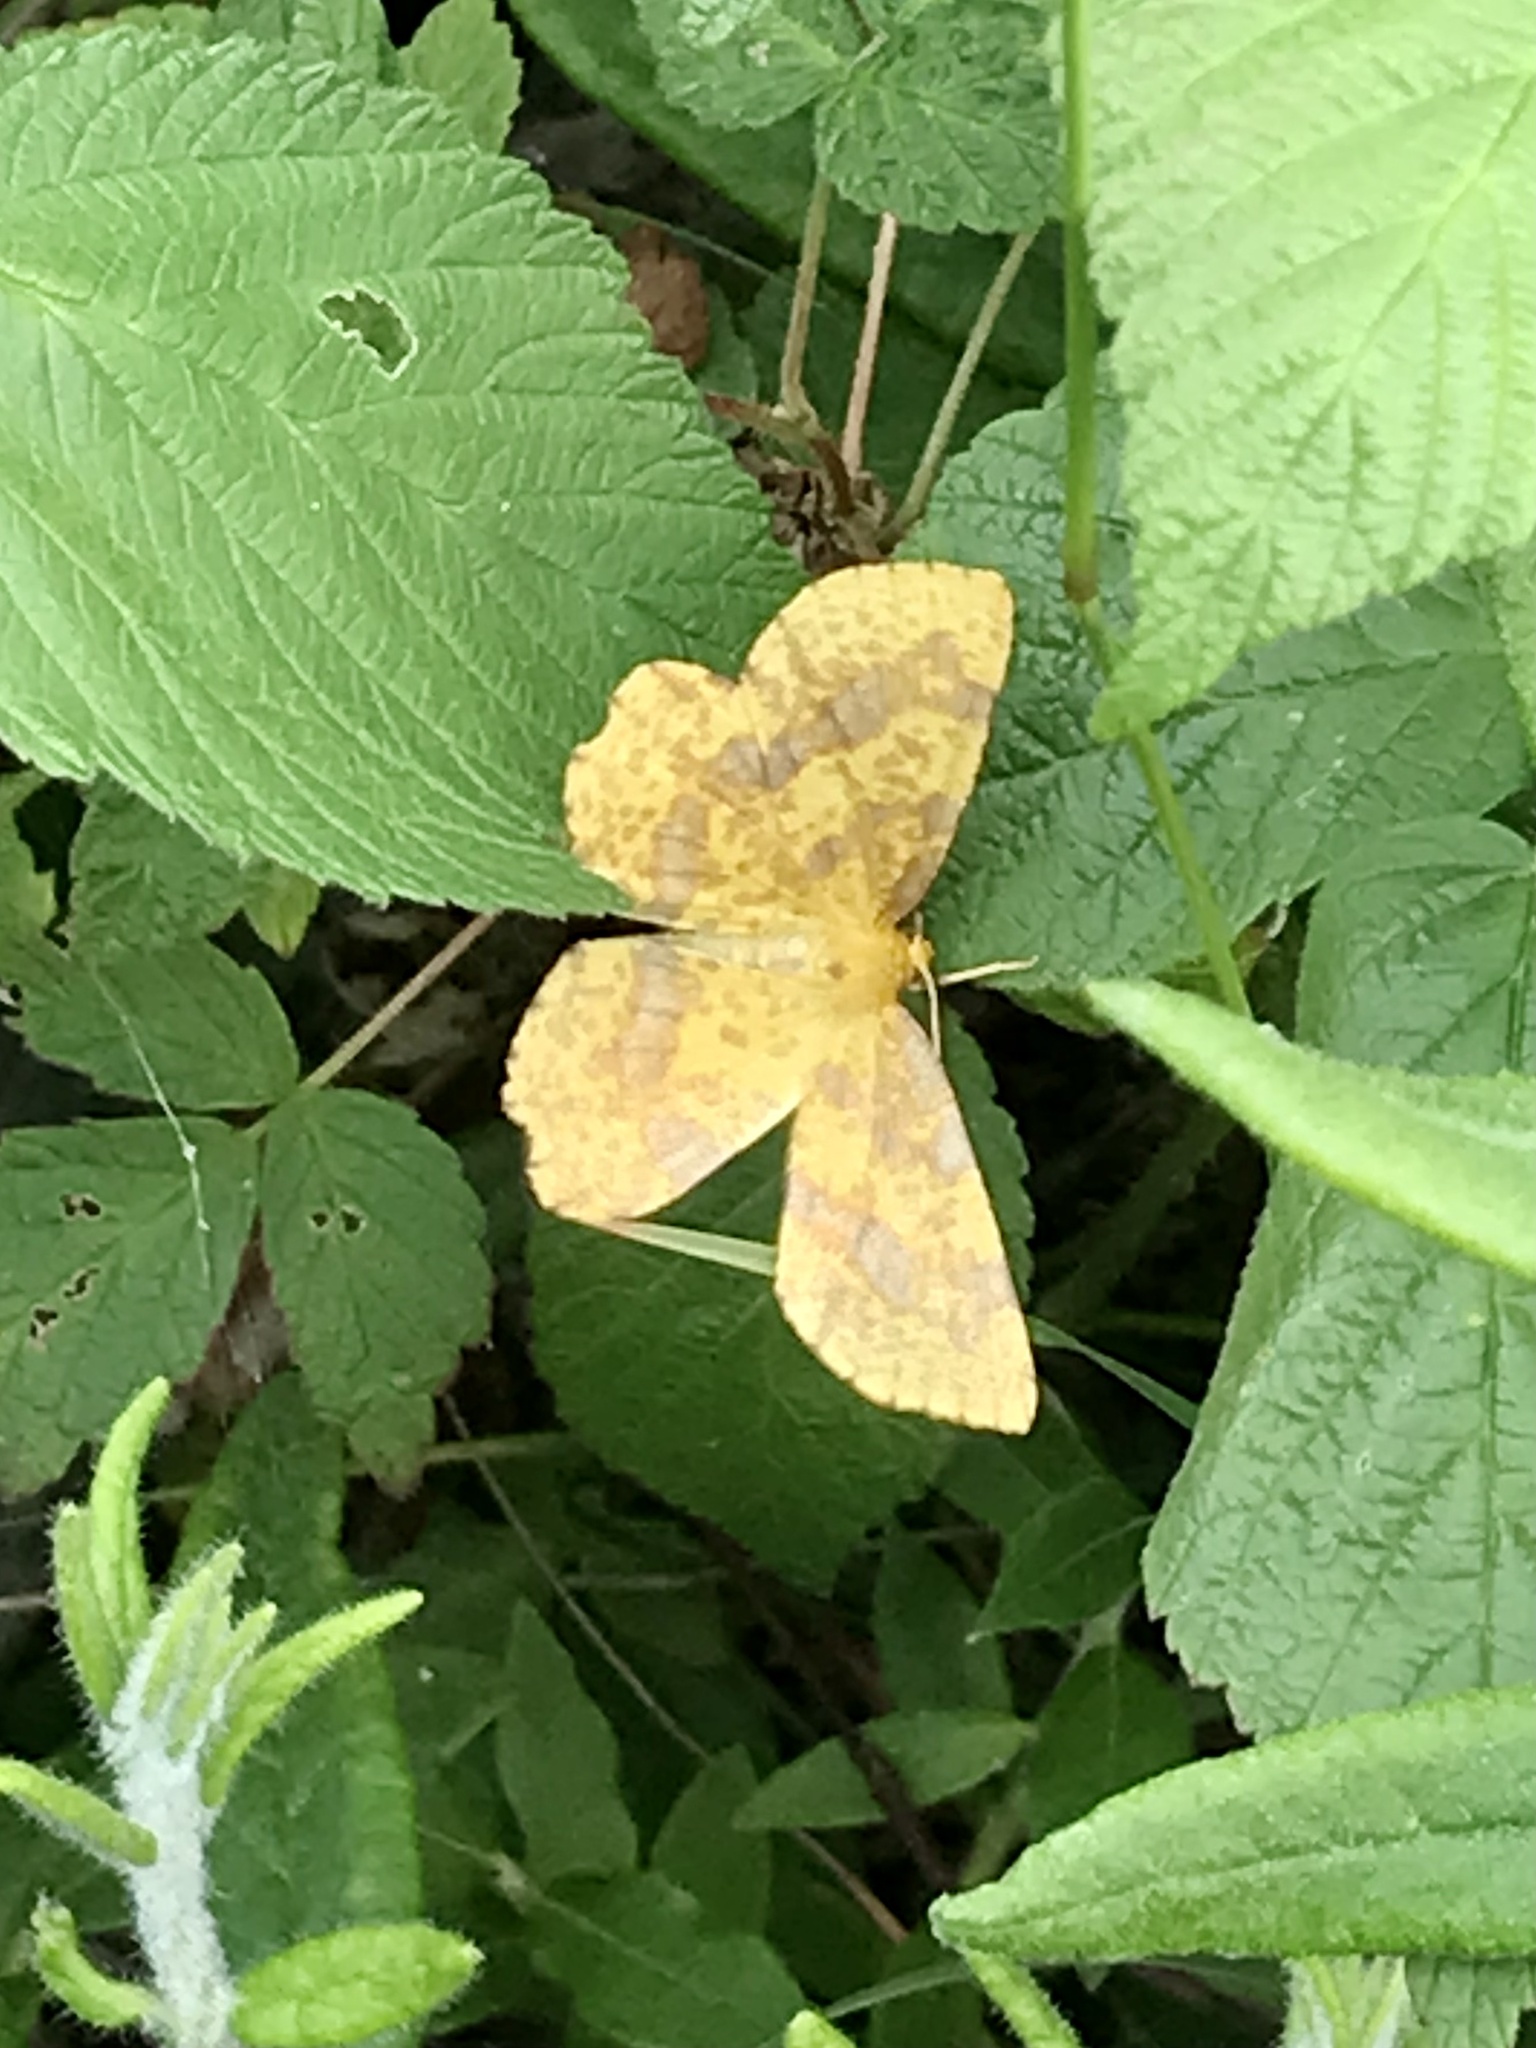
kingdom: Animalia
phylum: Arthropoda
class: Insecta
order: Lepidoptera
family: Geometridae
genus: Xanthotype
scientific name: Xanthotype
